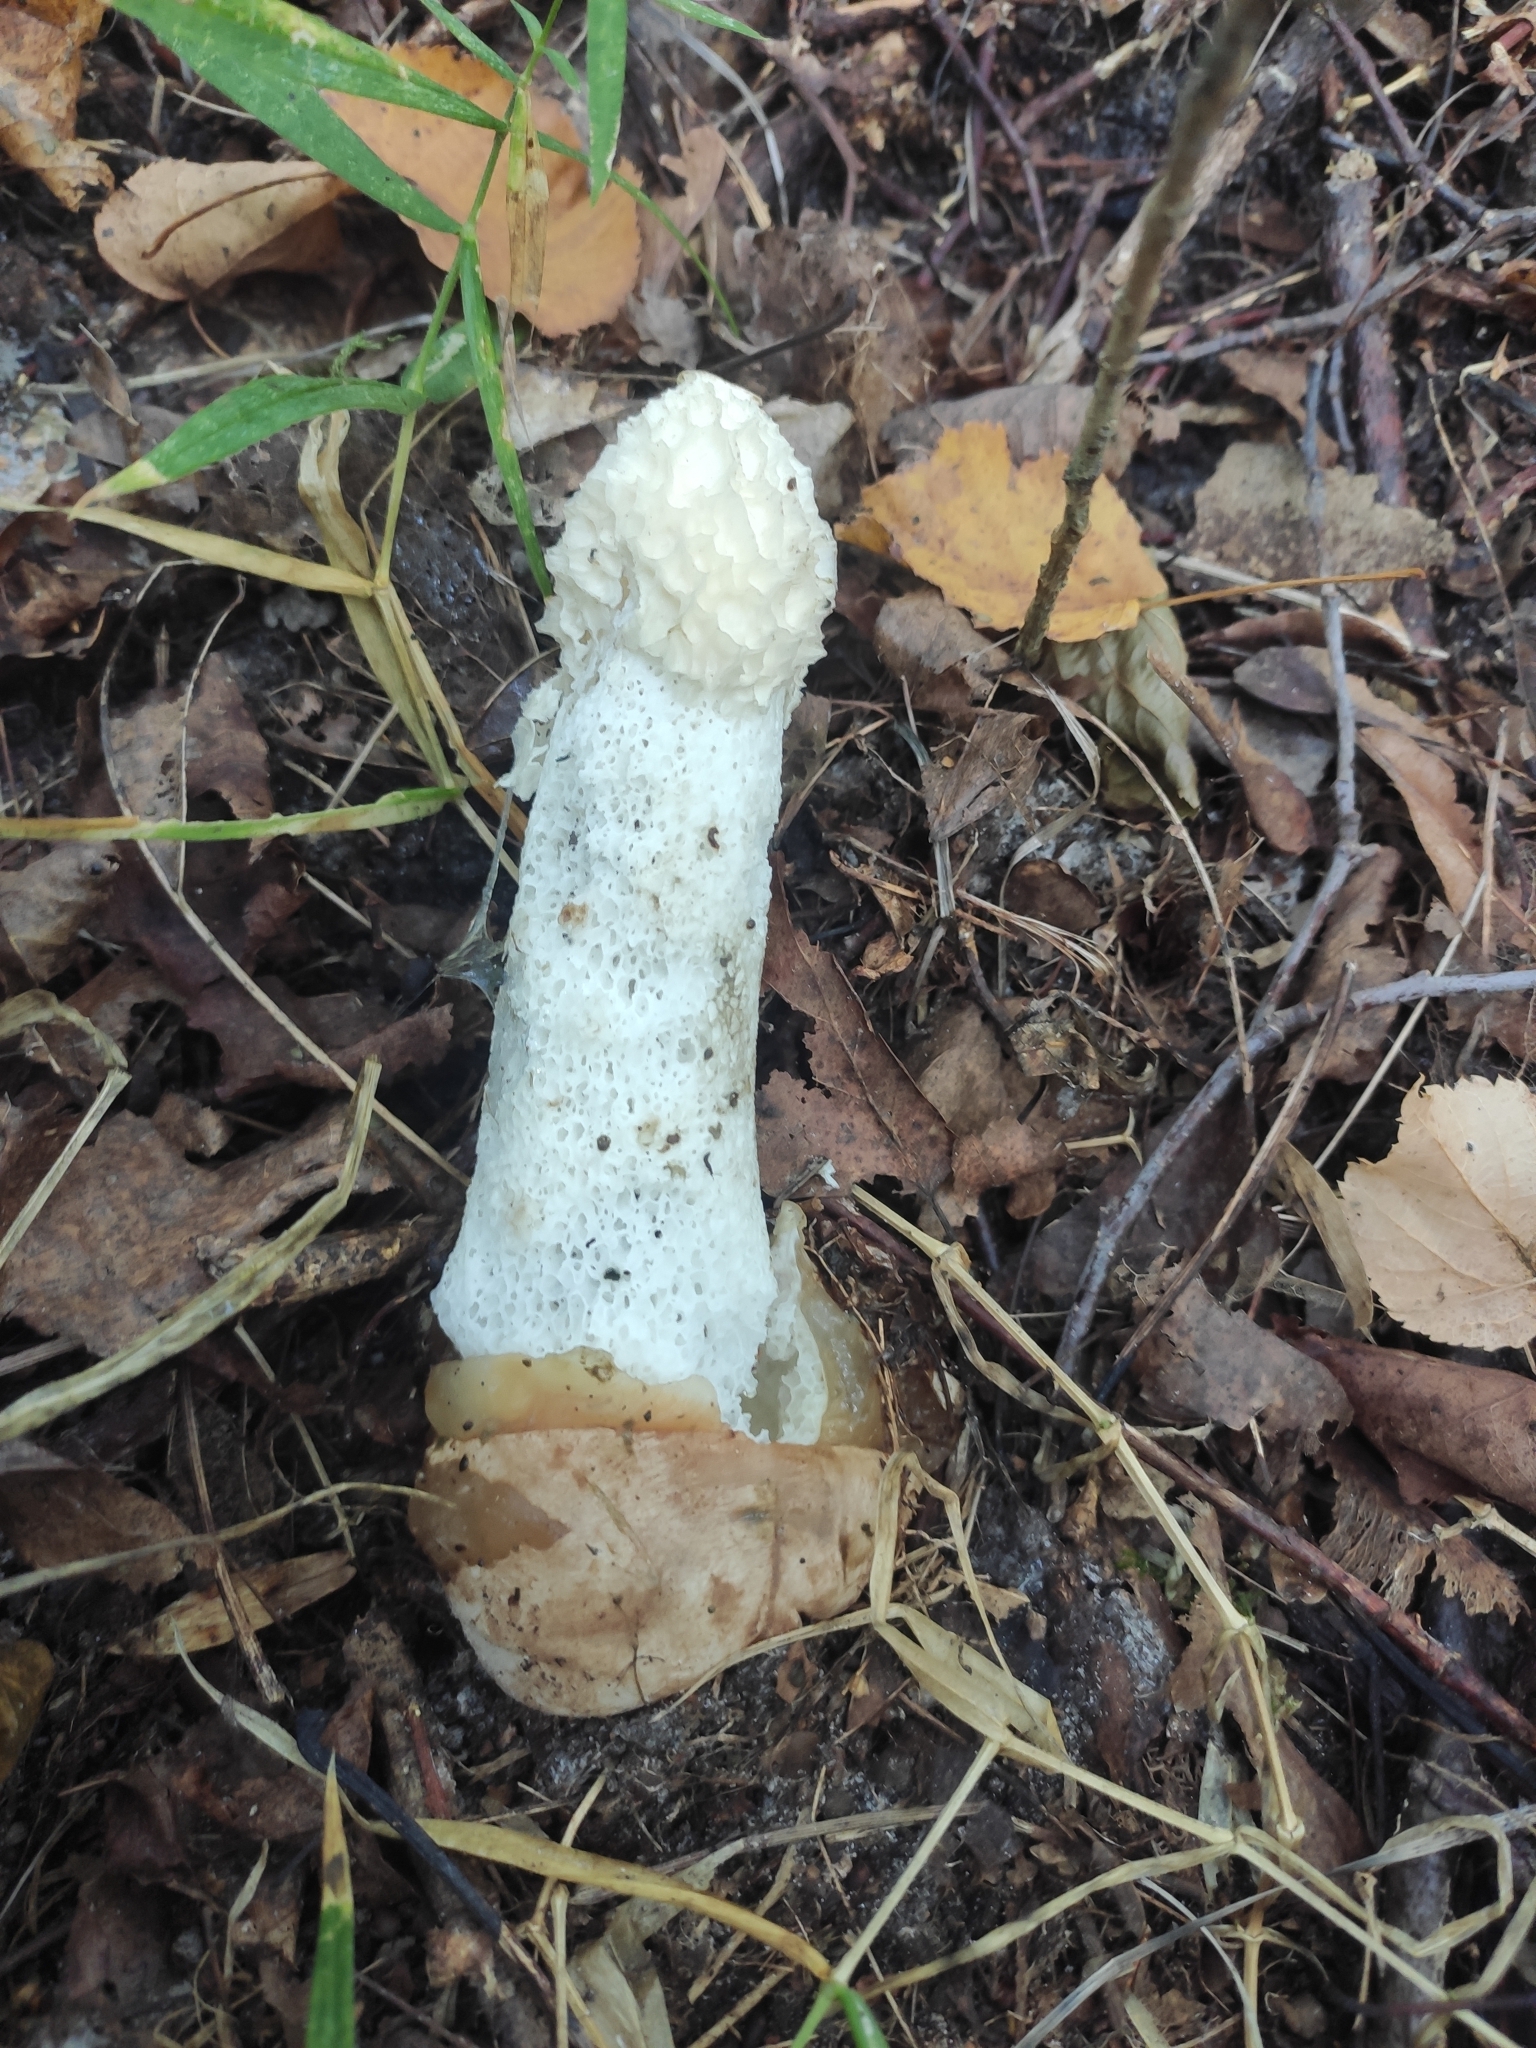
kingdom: Fungi
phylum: Basidiomycota
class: Agaricomycetes
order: Phallales
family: Phallaceae
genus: Phallus
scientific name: Phallus impudicus
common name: Common stinkhorn
